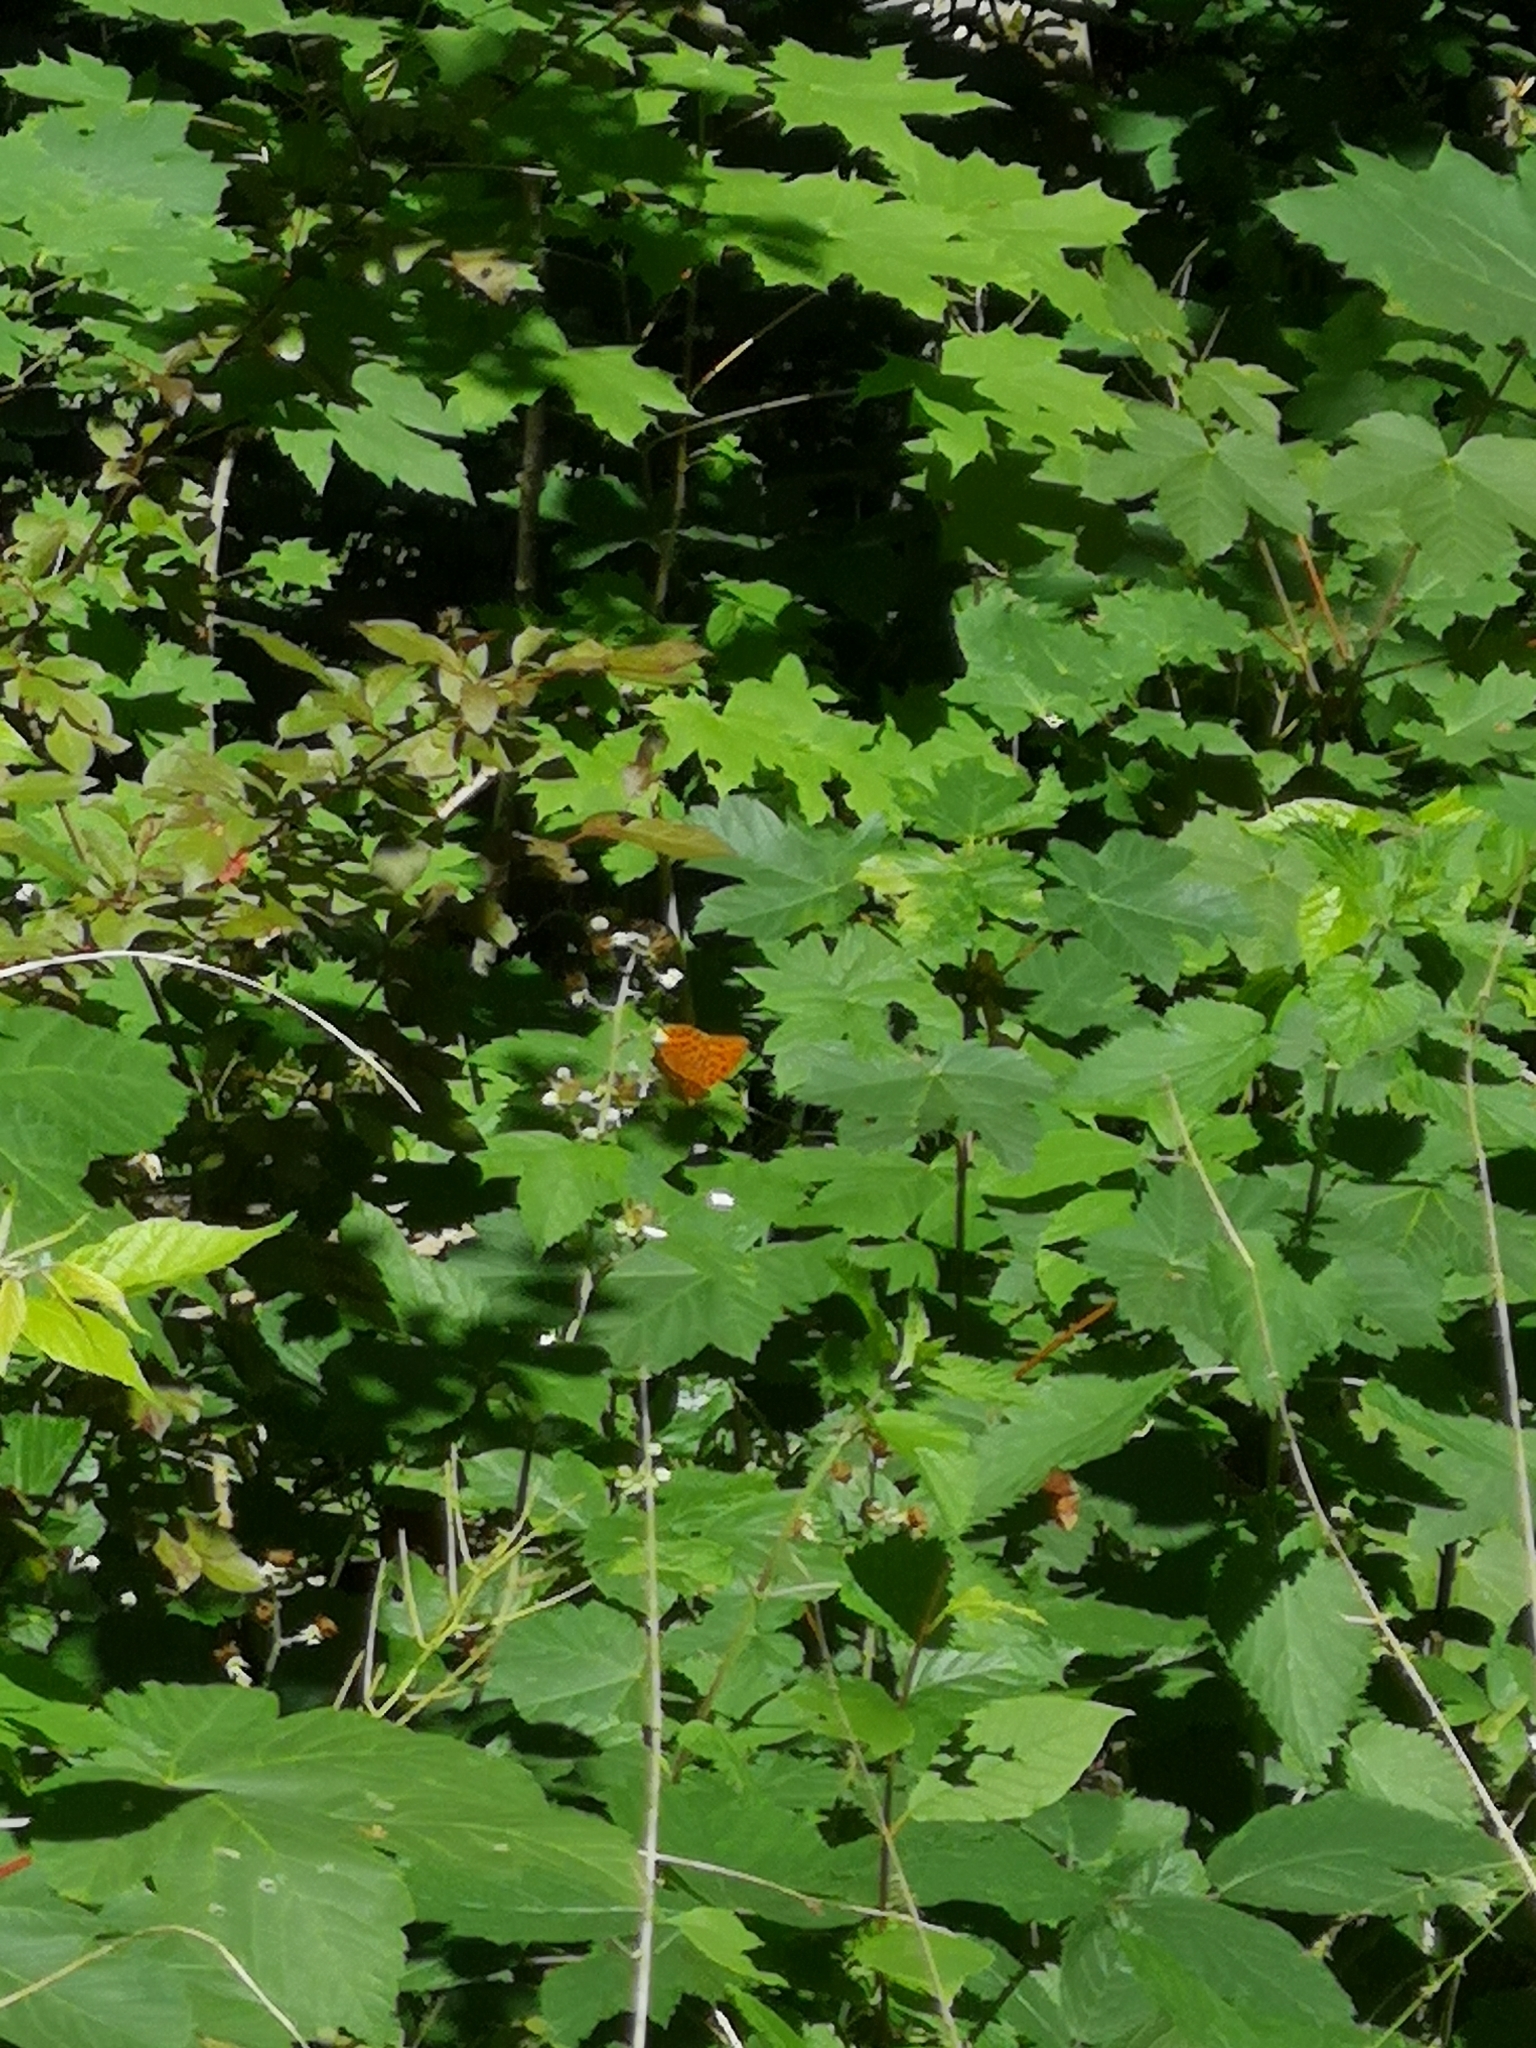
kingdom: Animalia
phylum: Arthropoda
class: Insecta
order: Lepidoptera
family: Nymphalidae
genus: Argynnis
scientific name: Argynnis paphia
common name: Silver-washed fritillary
